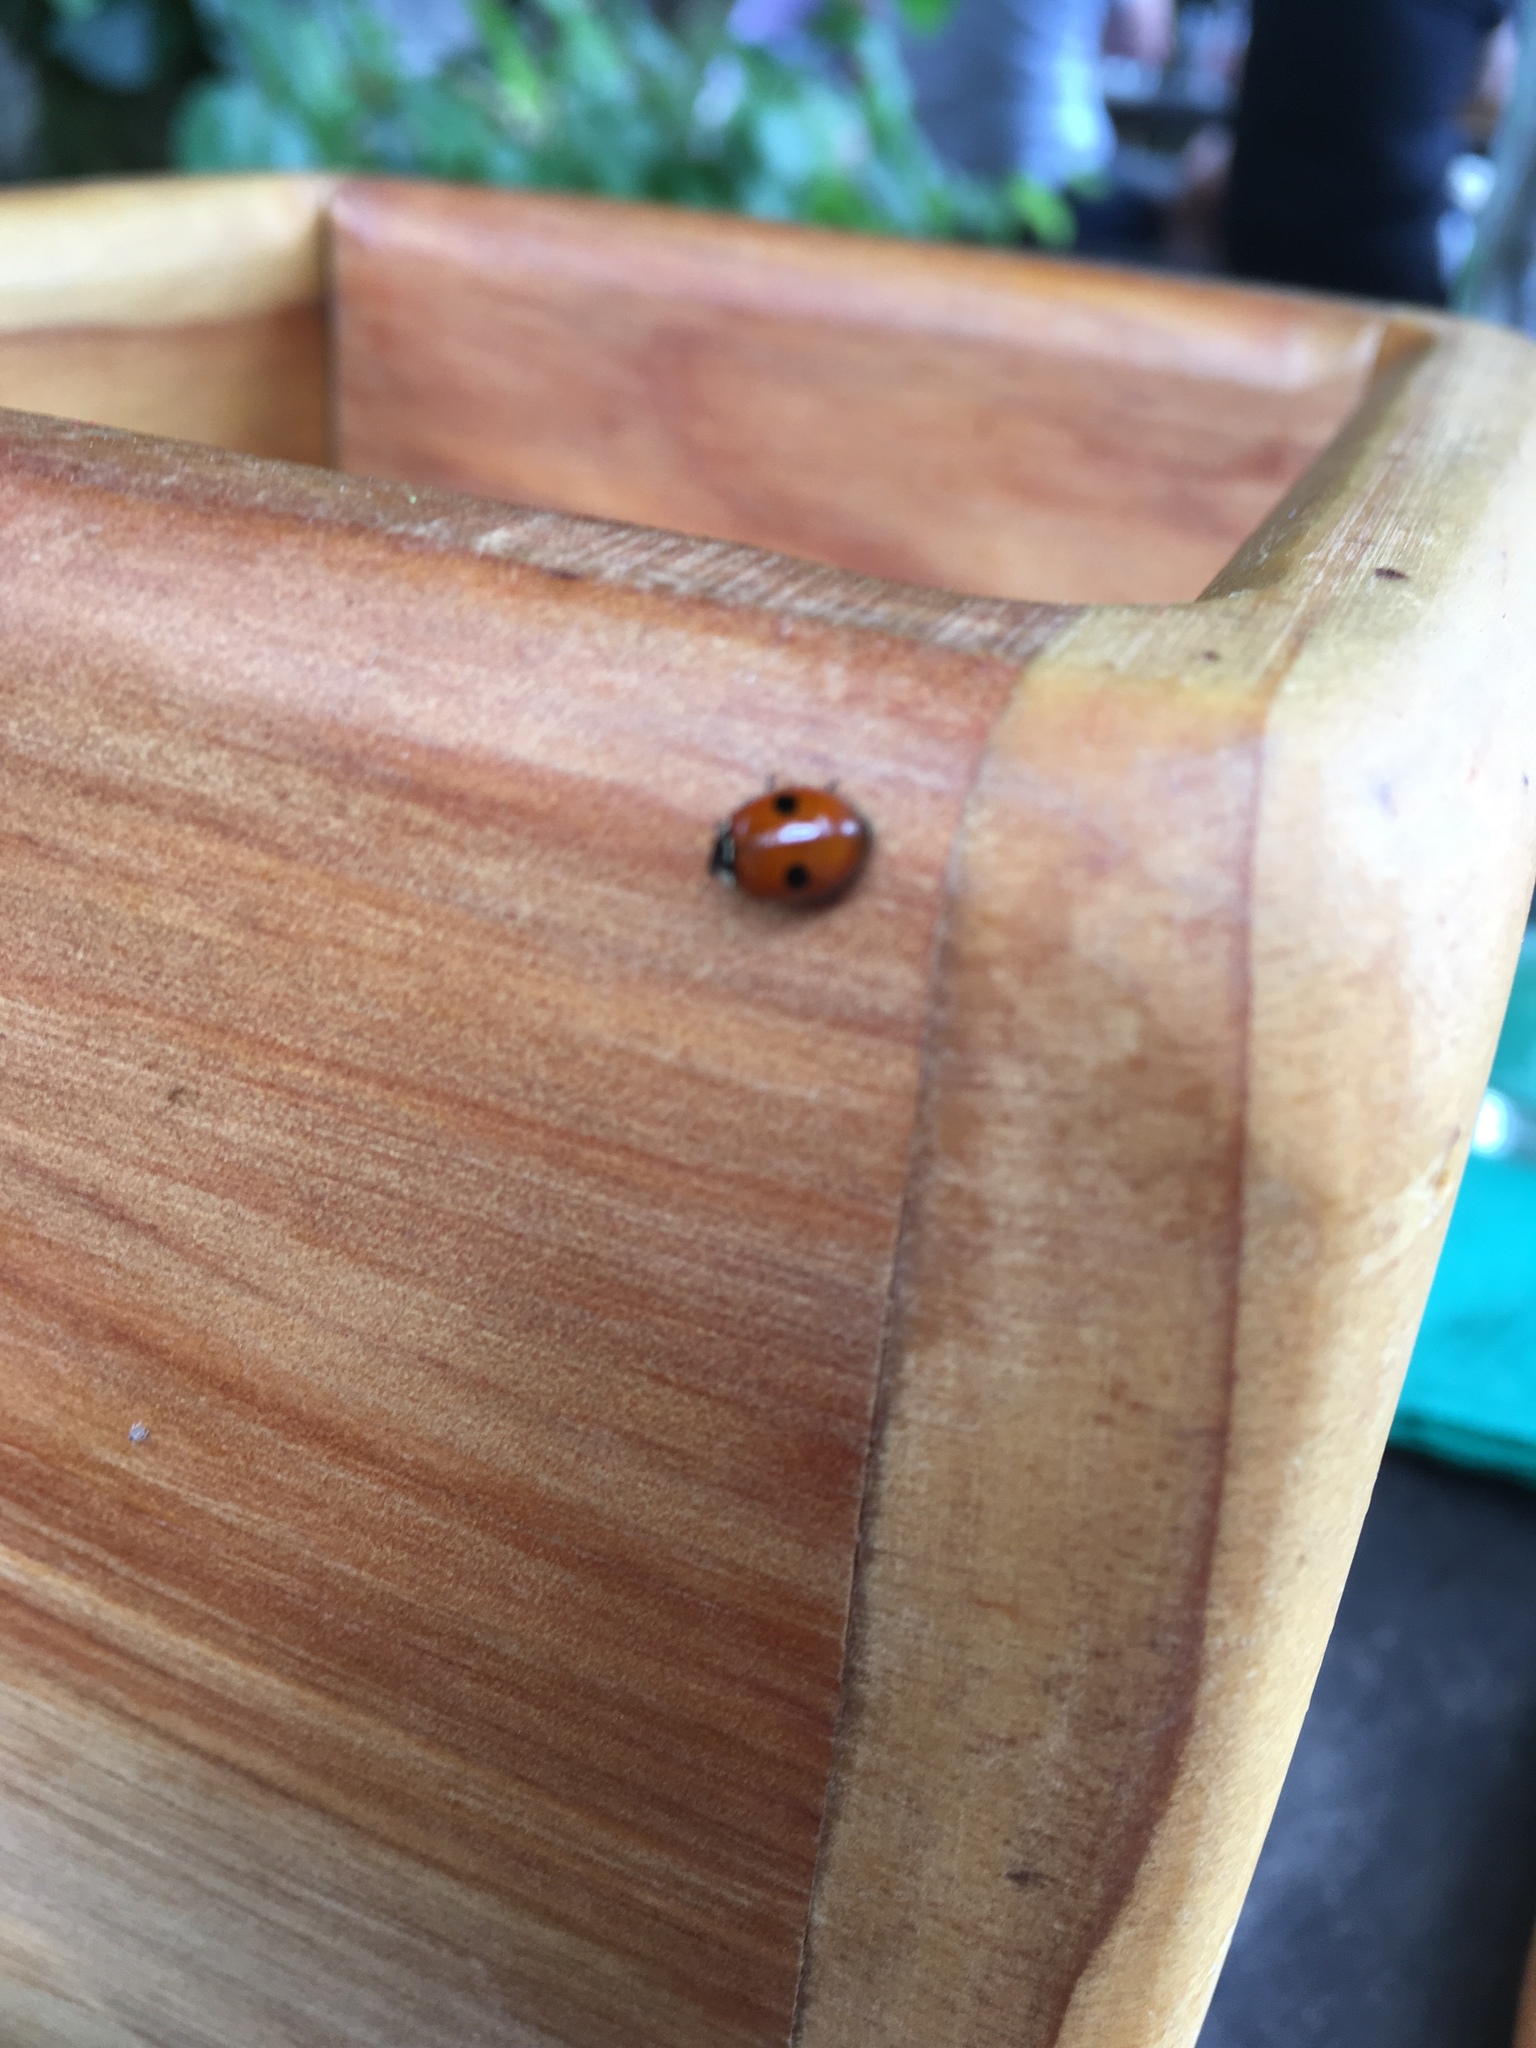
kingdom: Animalia
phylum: Arthropoda
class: Insecta
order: Coleoptera
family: Coccinellidae
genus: Adalia
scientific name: Adalia bipunctata
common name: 2-spot ladybird
